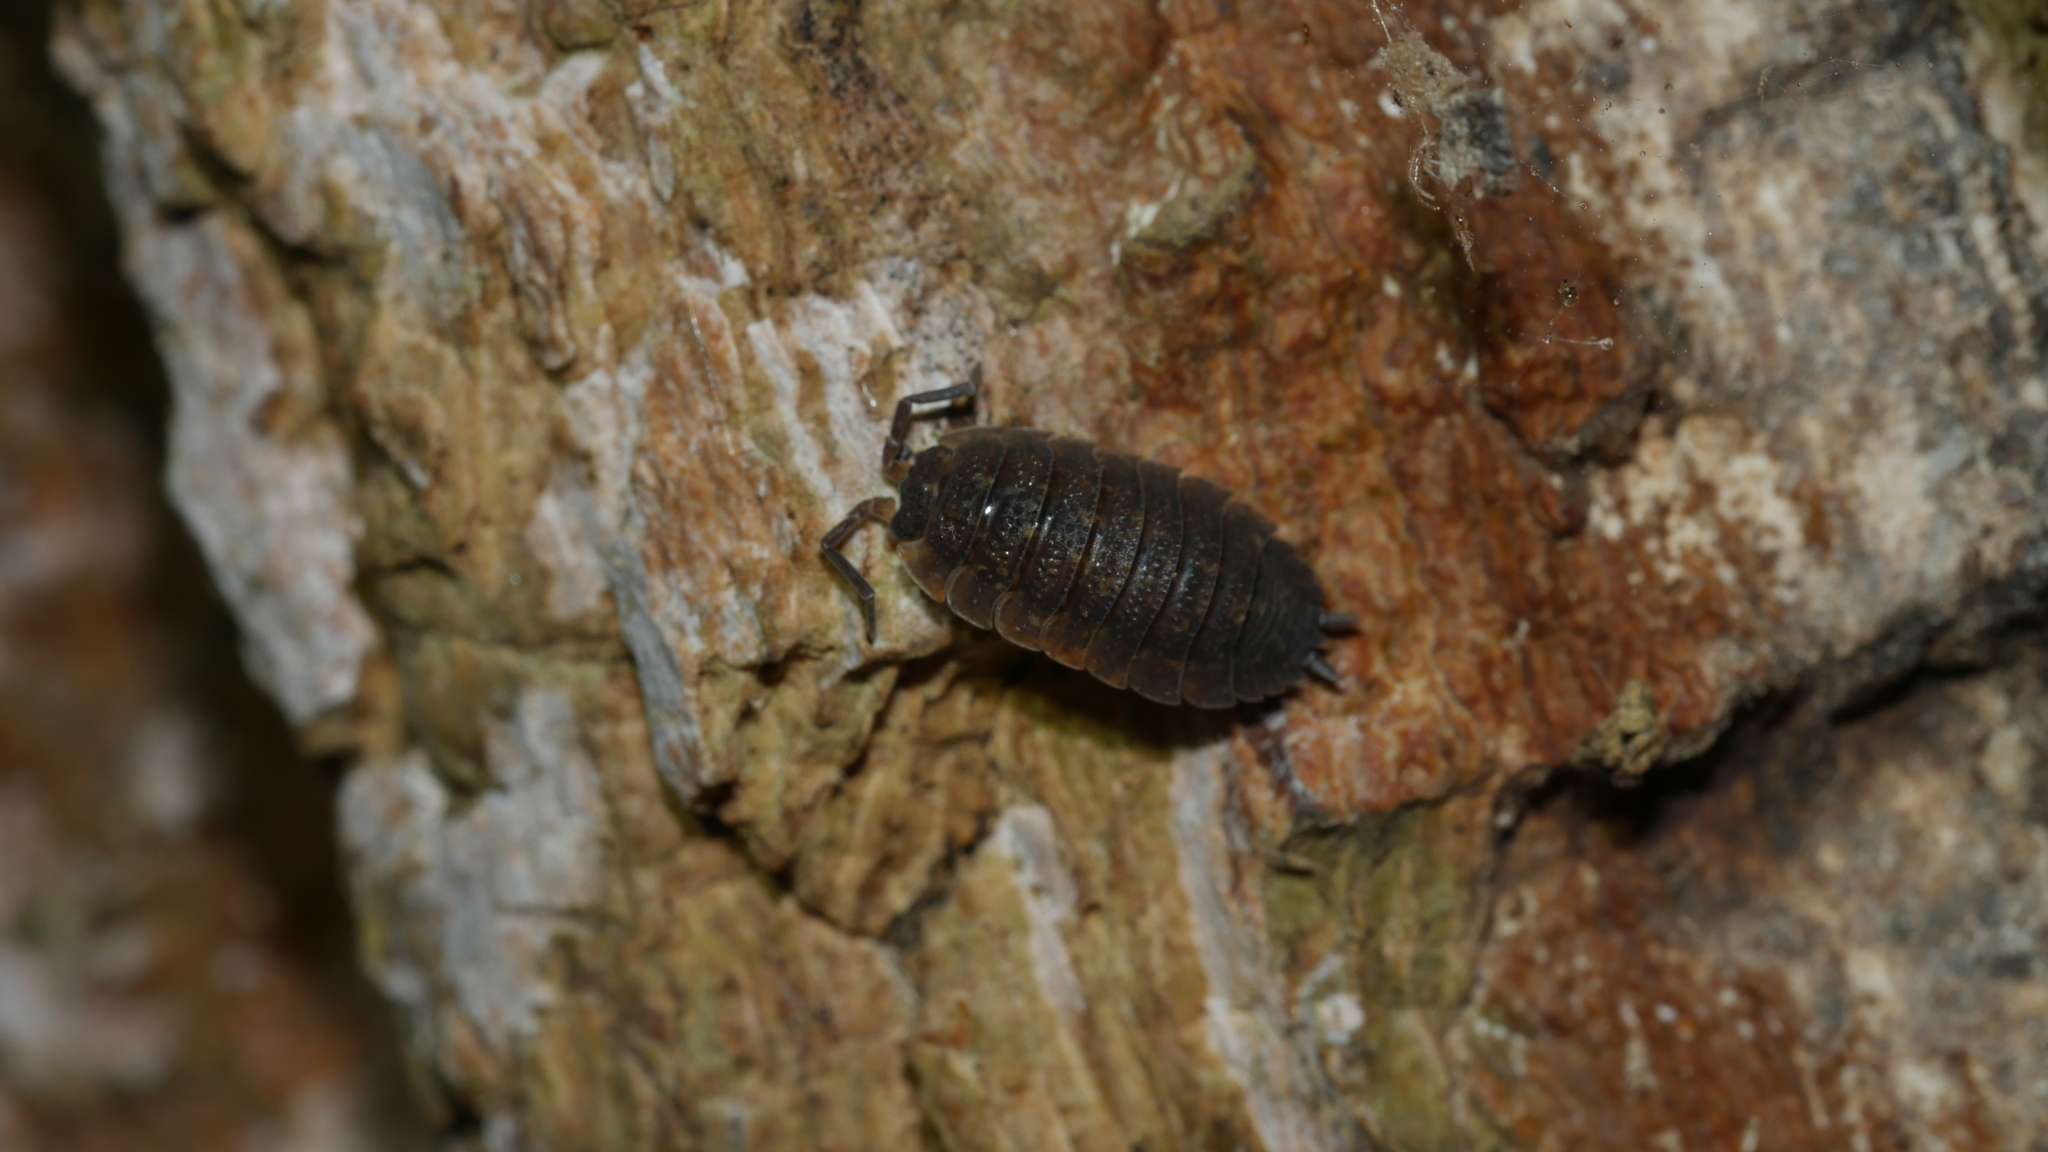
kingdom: Animalia
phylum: Arthropoda
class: Malacostraca
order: Isopoda
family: Porcellionidae
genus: Porcellio
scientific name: Porcellio scaber
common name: Common rough woodlouse
